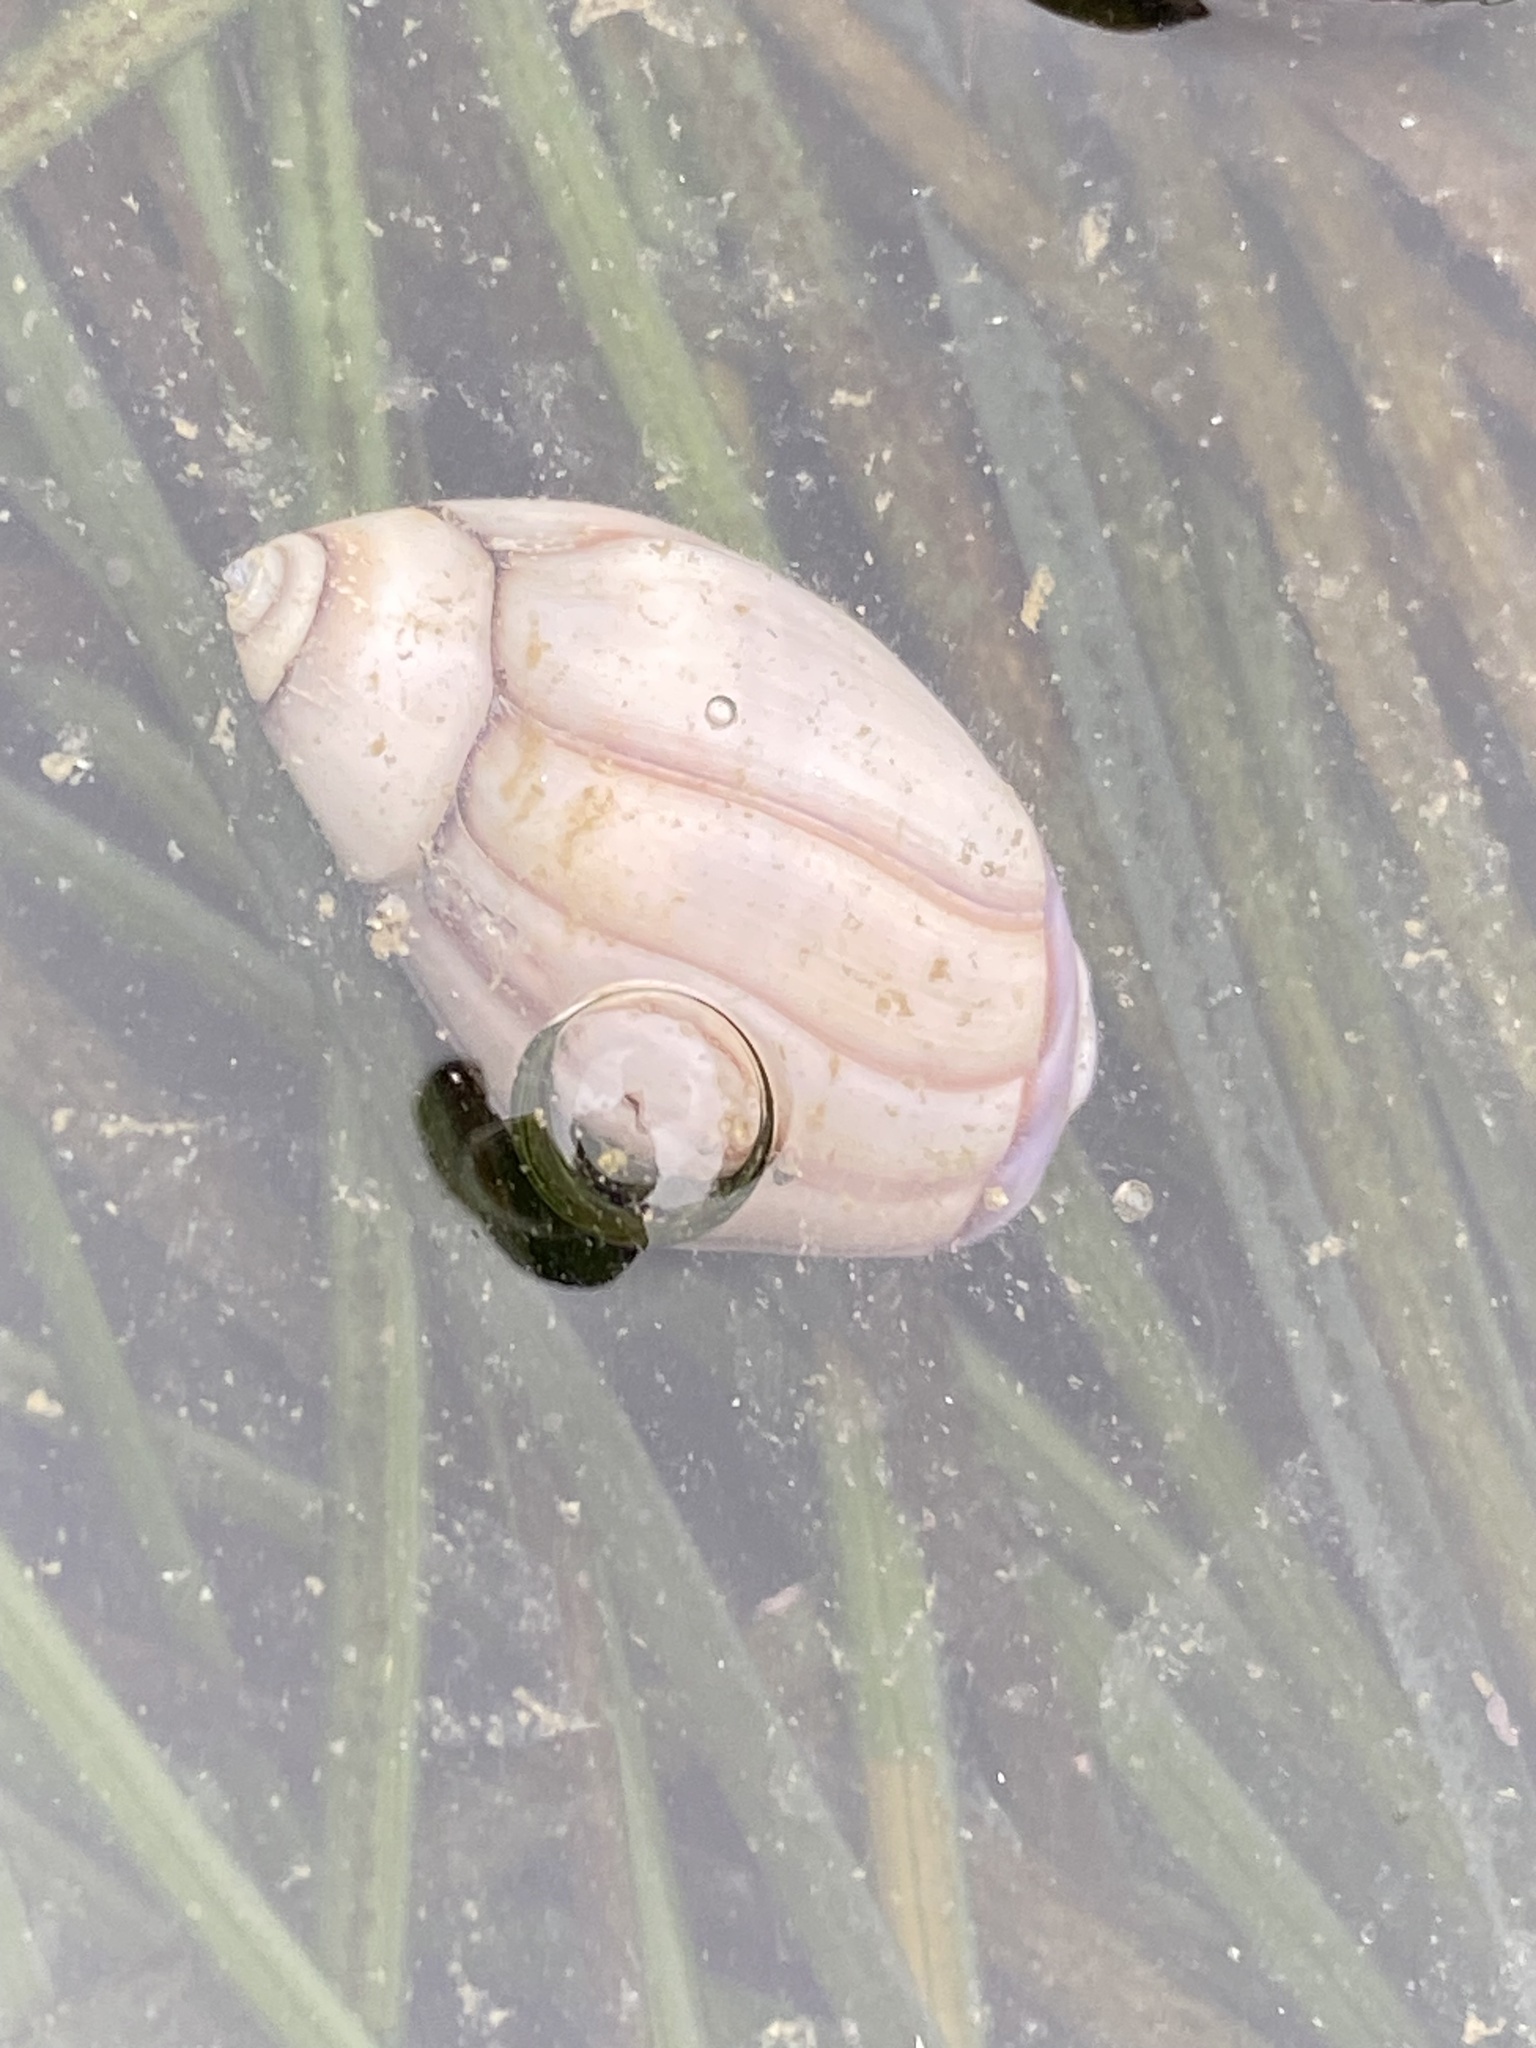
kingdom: Animalia
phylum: Mollusca
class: Gastropoda
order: Neogastropoda
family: Olividae
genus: Callianax
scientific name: Callianax biplicata
